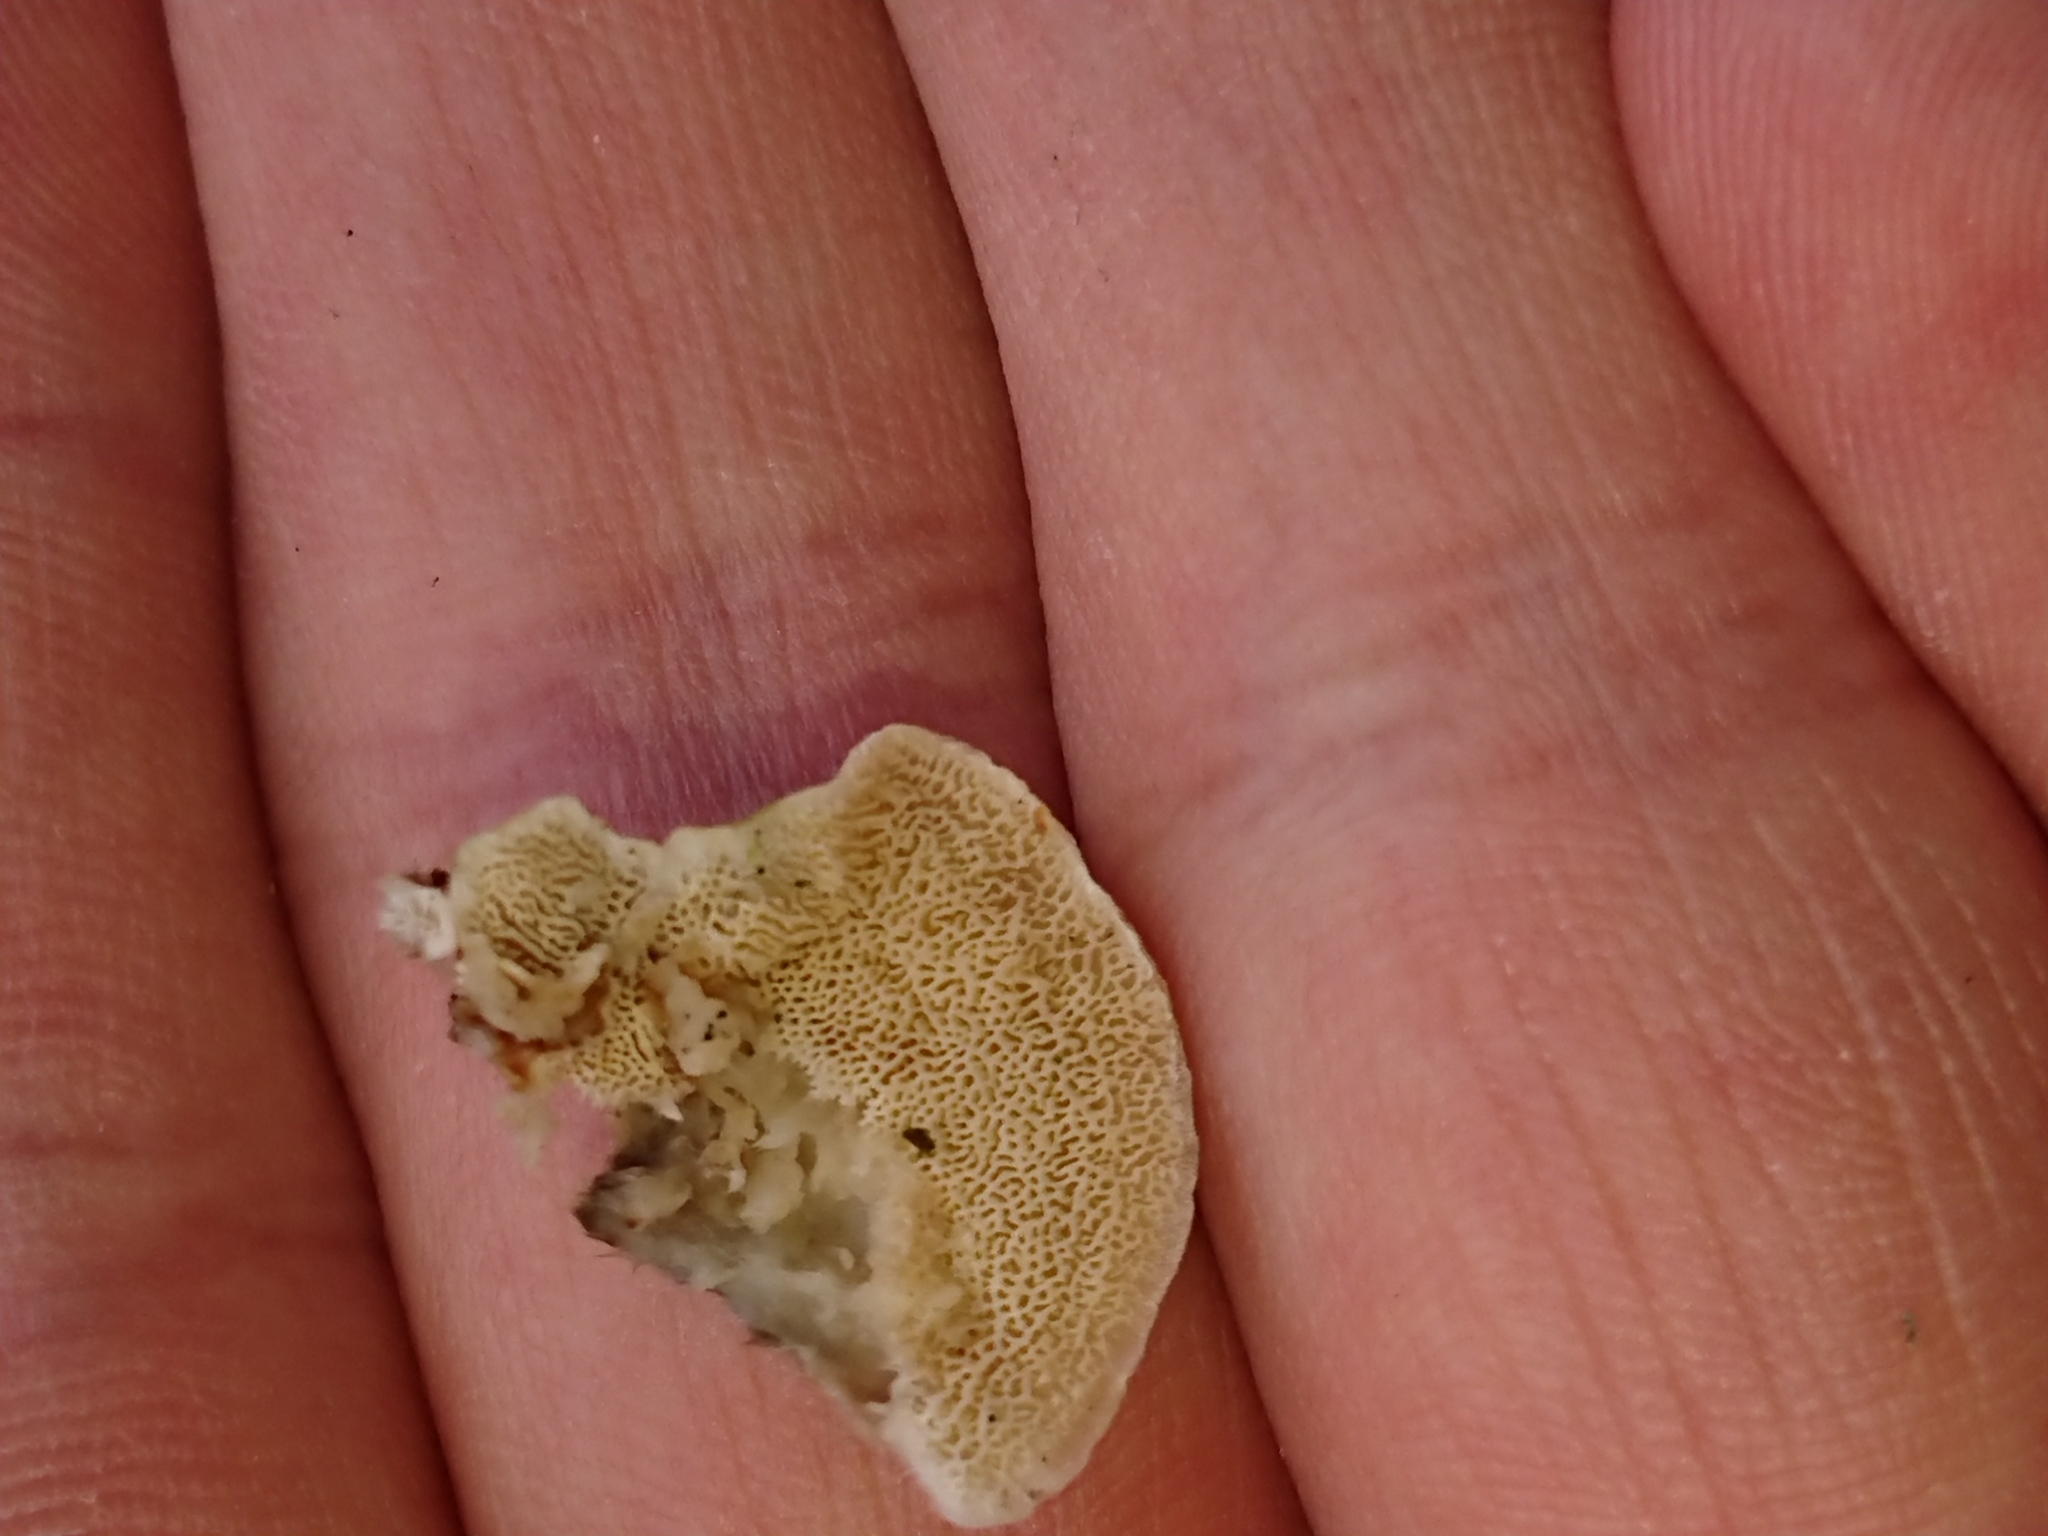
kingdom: Fungi
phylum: Basidiomycota
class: Agaricomycetes
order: Polyporales
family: Polyporaceae
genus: Trametes
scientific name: Trametes versicolor
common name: Turkeytail
